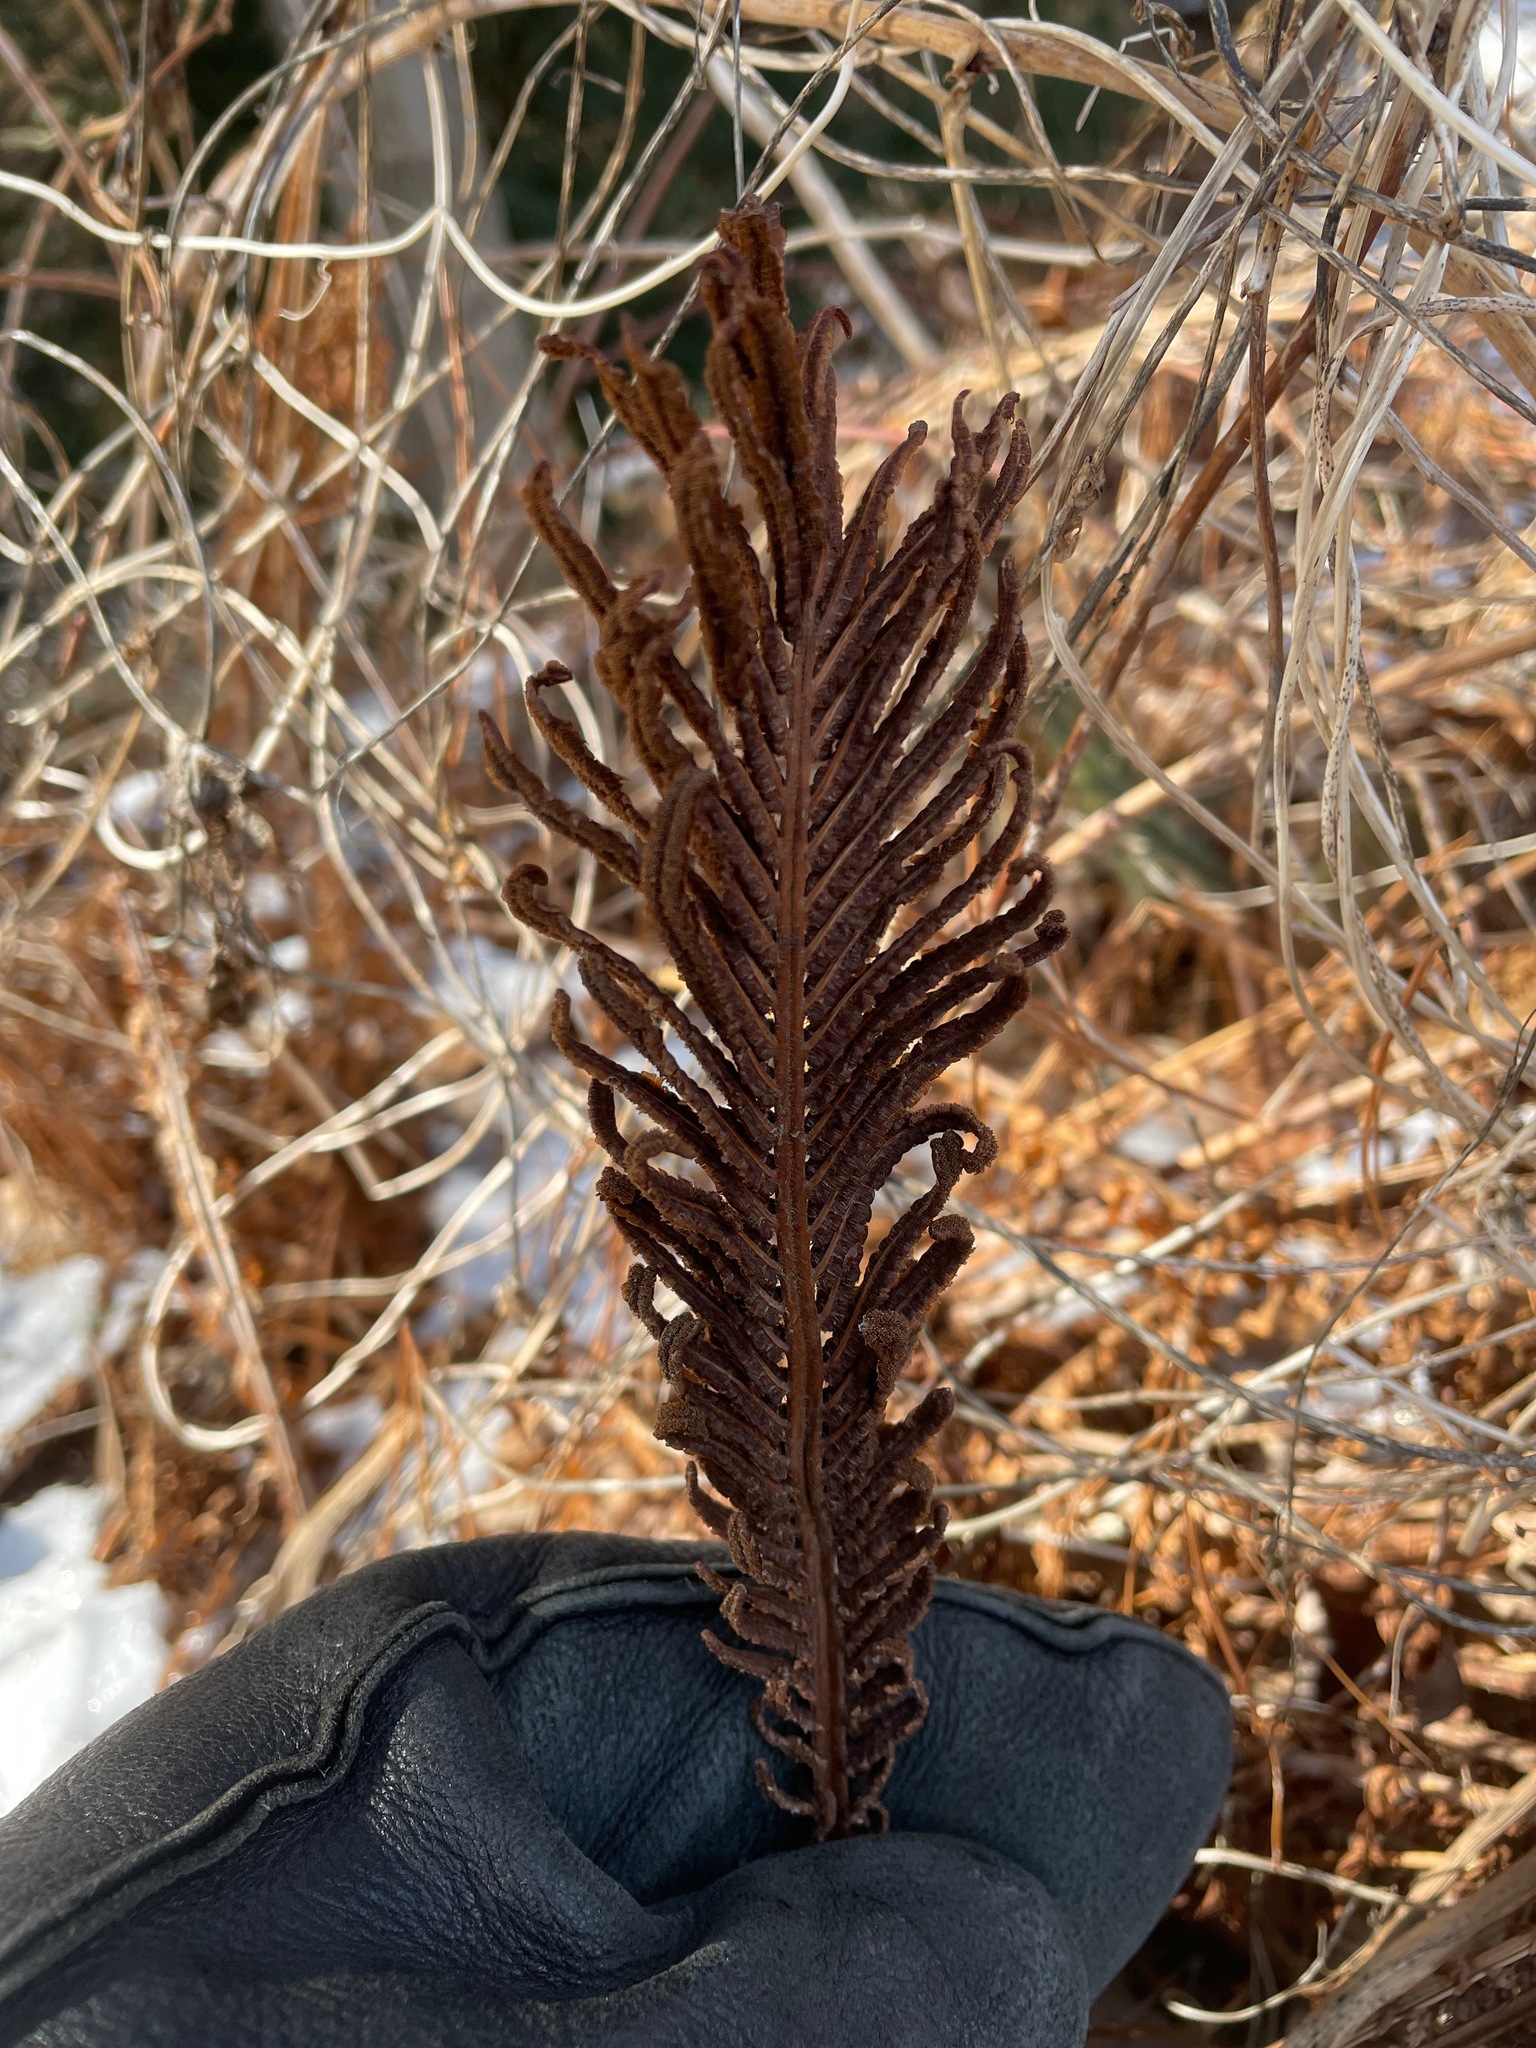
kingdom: Plantae
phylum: Tracheophyta
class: Polypodiopsida
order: Polypodiales
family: Onocleaceae
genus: Matteuccia
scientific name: Matteuccia struthiopteris
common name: Ostrich fern
